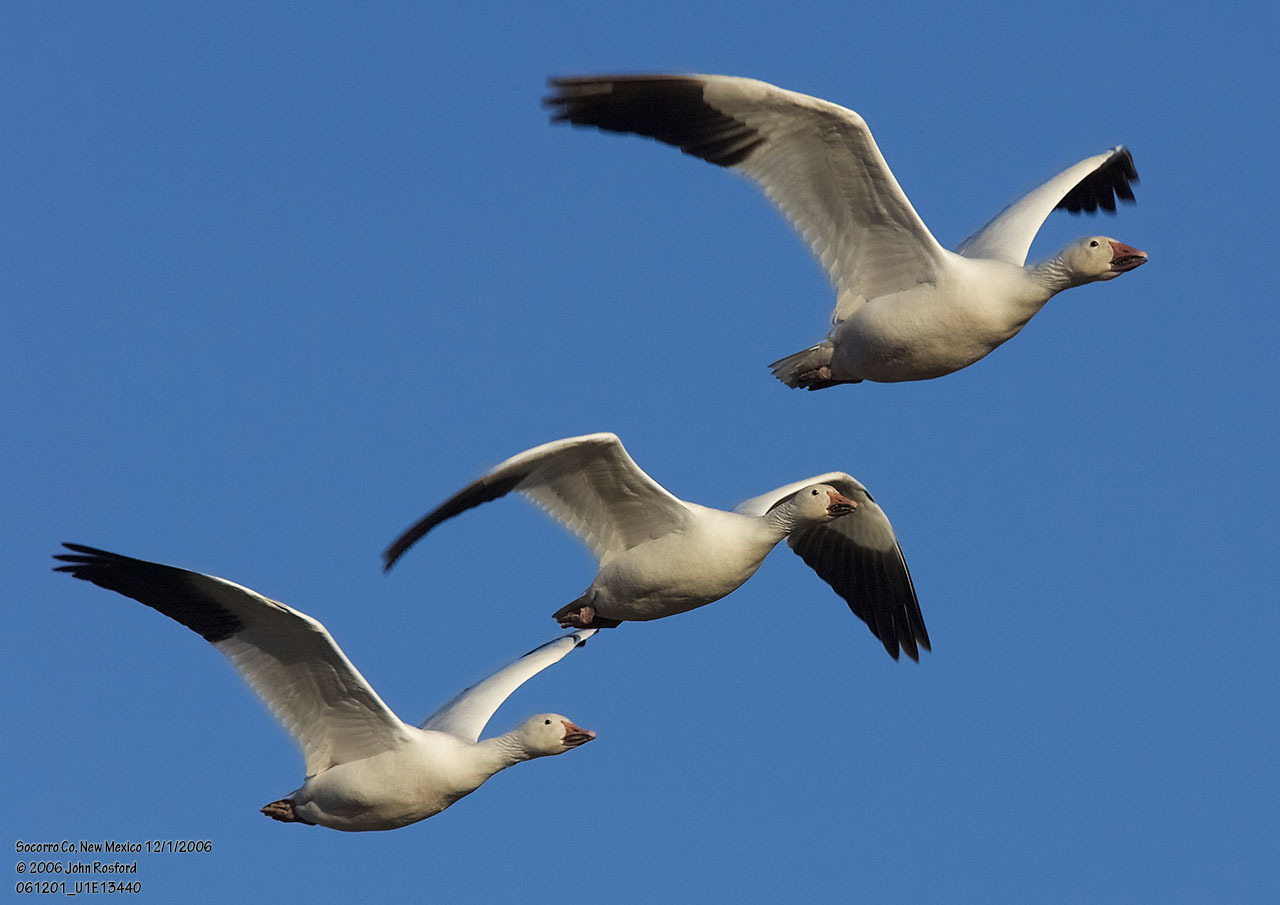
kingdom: Animalia
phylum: Chordata
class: Aves
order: Anseriformes
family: Anatidae
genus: Anser
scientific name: Anser caerulescens
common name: Snow goose
